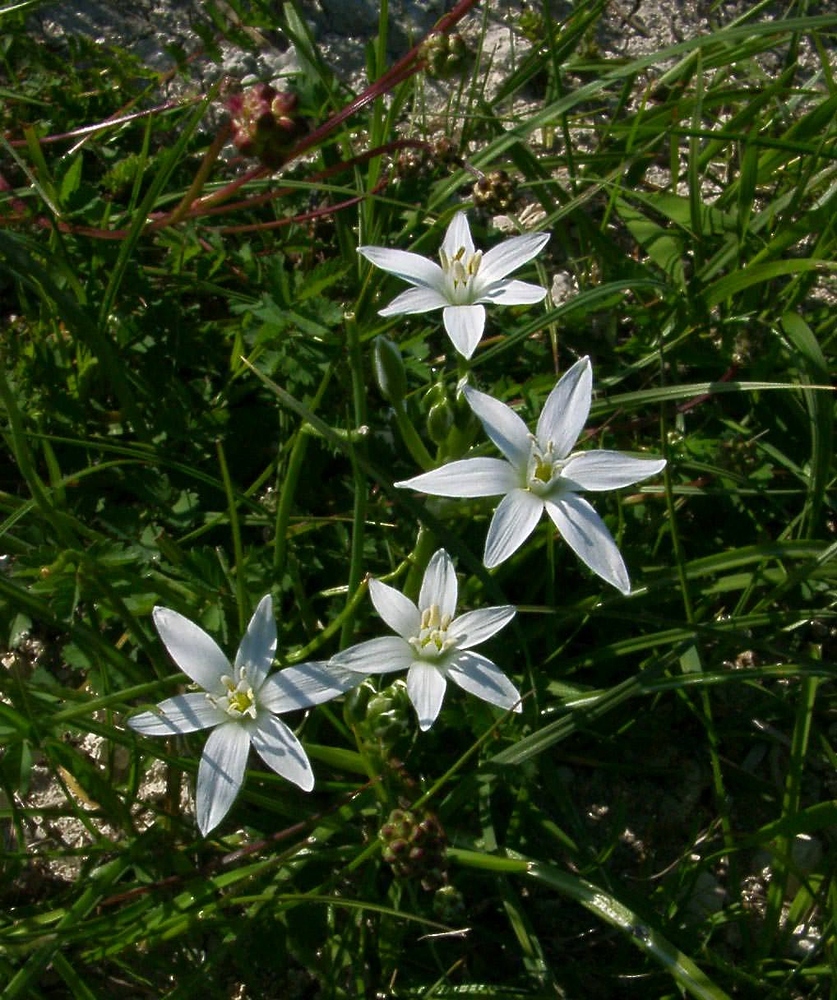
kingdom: Plantae
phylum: Tracheophyta
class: Liliopsida
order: Asparagales
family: Asparagaceae
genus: Ornithogalum
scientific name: Ornithogalum umbellatum
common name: Garden star-of-bethlehem
